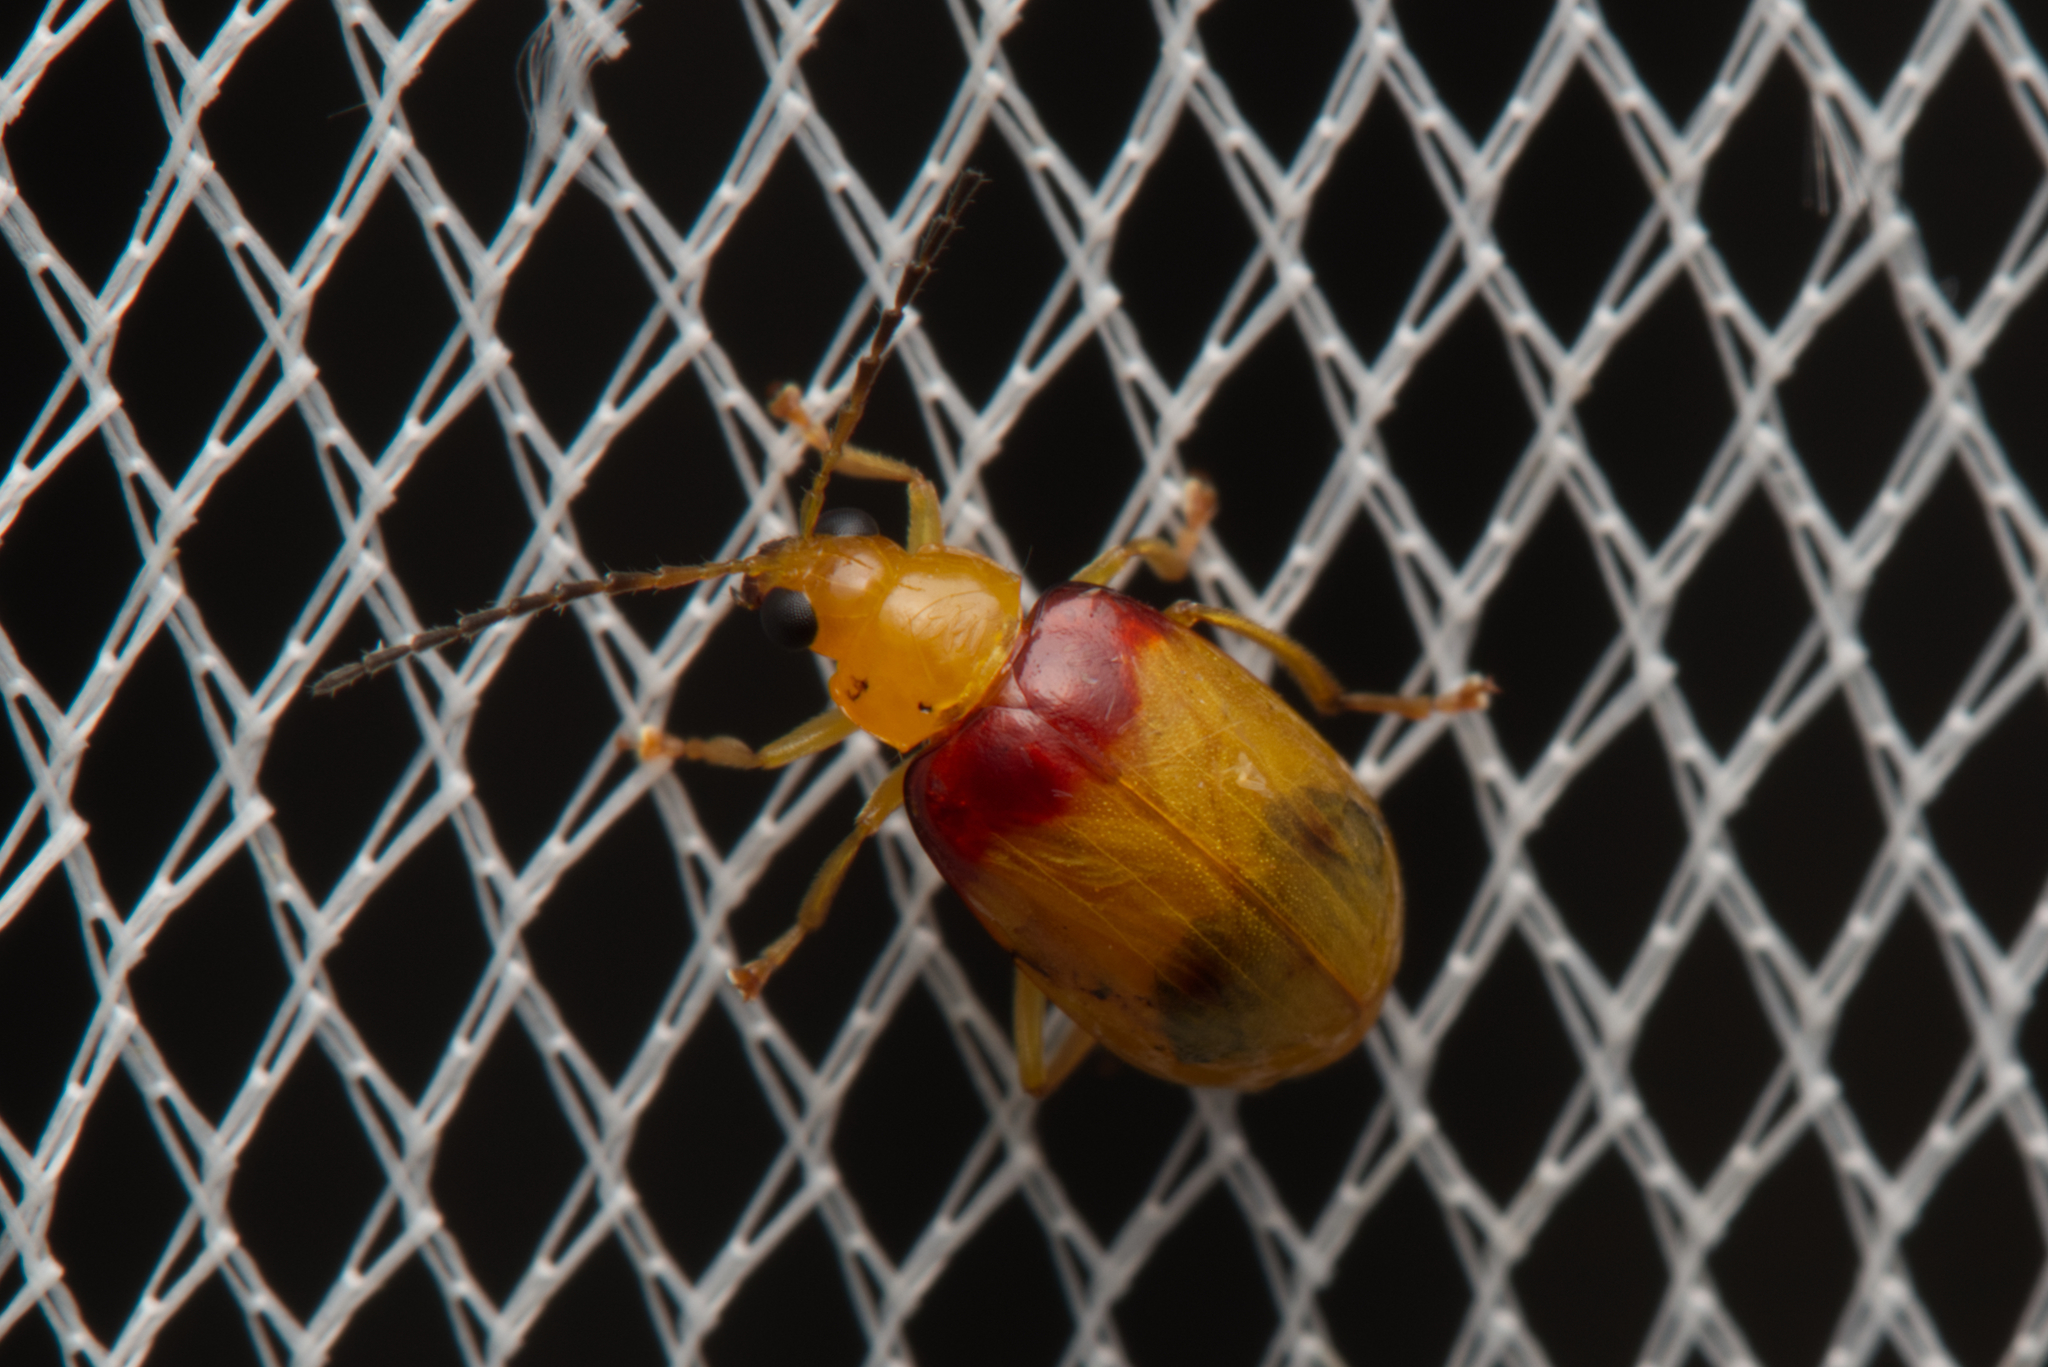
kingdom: Animalia
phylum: Arthropoda
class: Insecta
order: Coleoptera
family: Chrysomelidae
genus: Monolepta
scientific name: Monolepta
